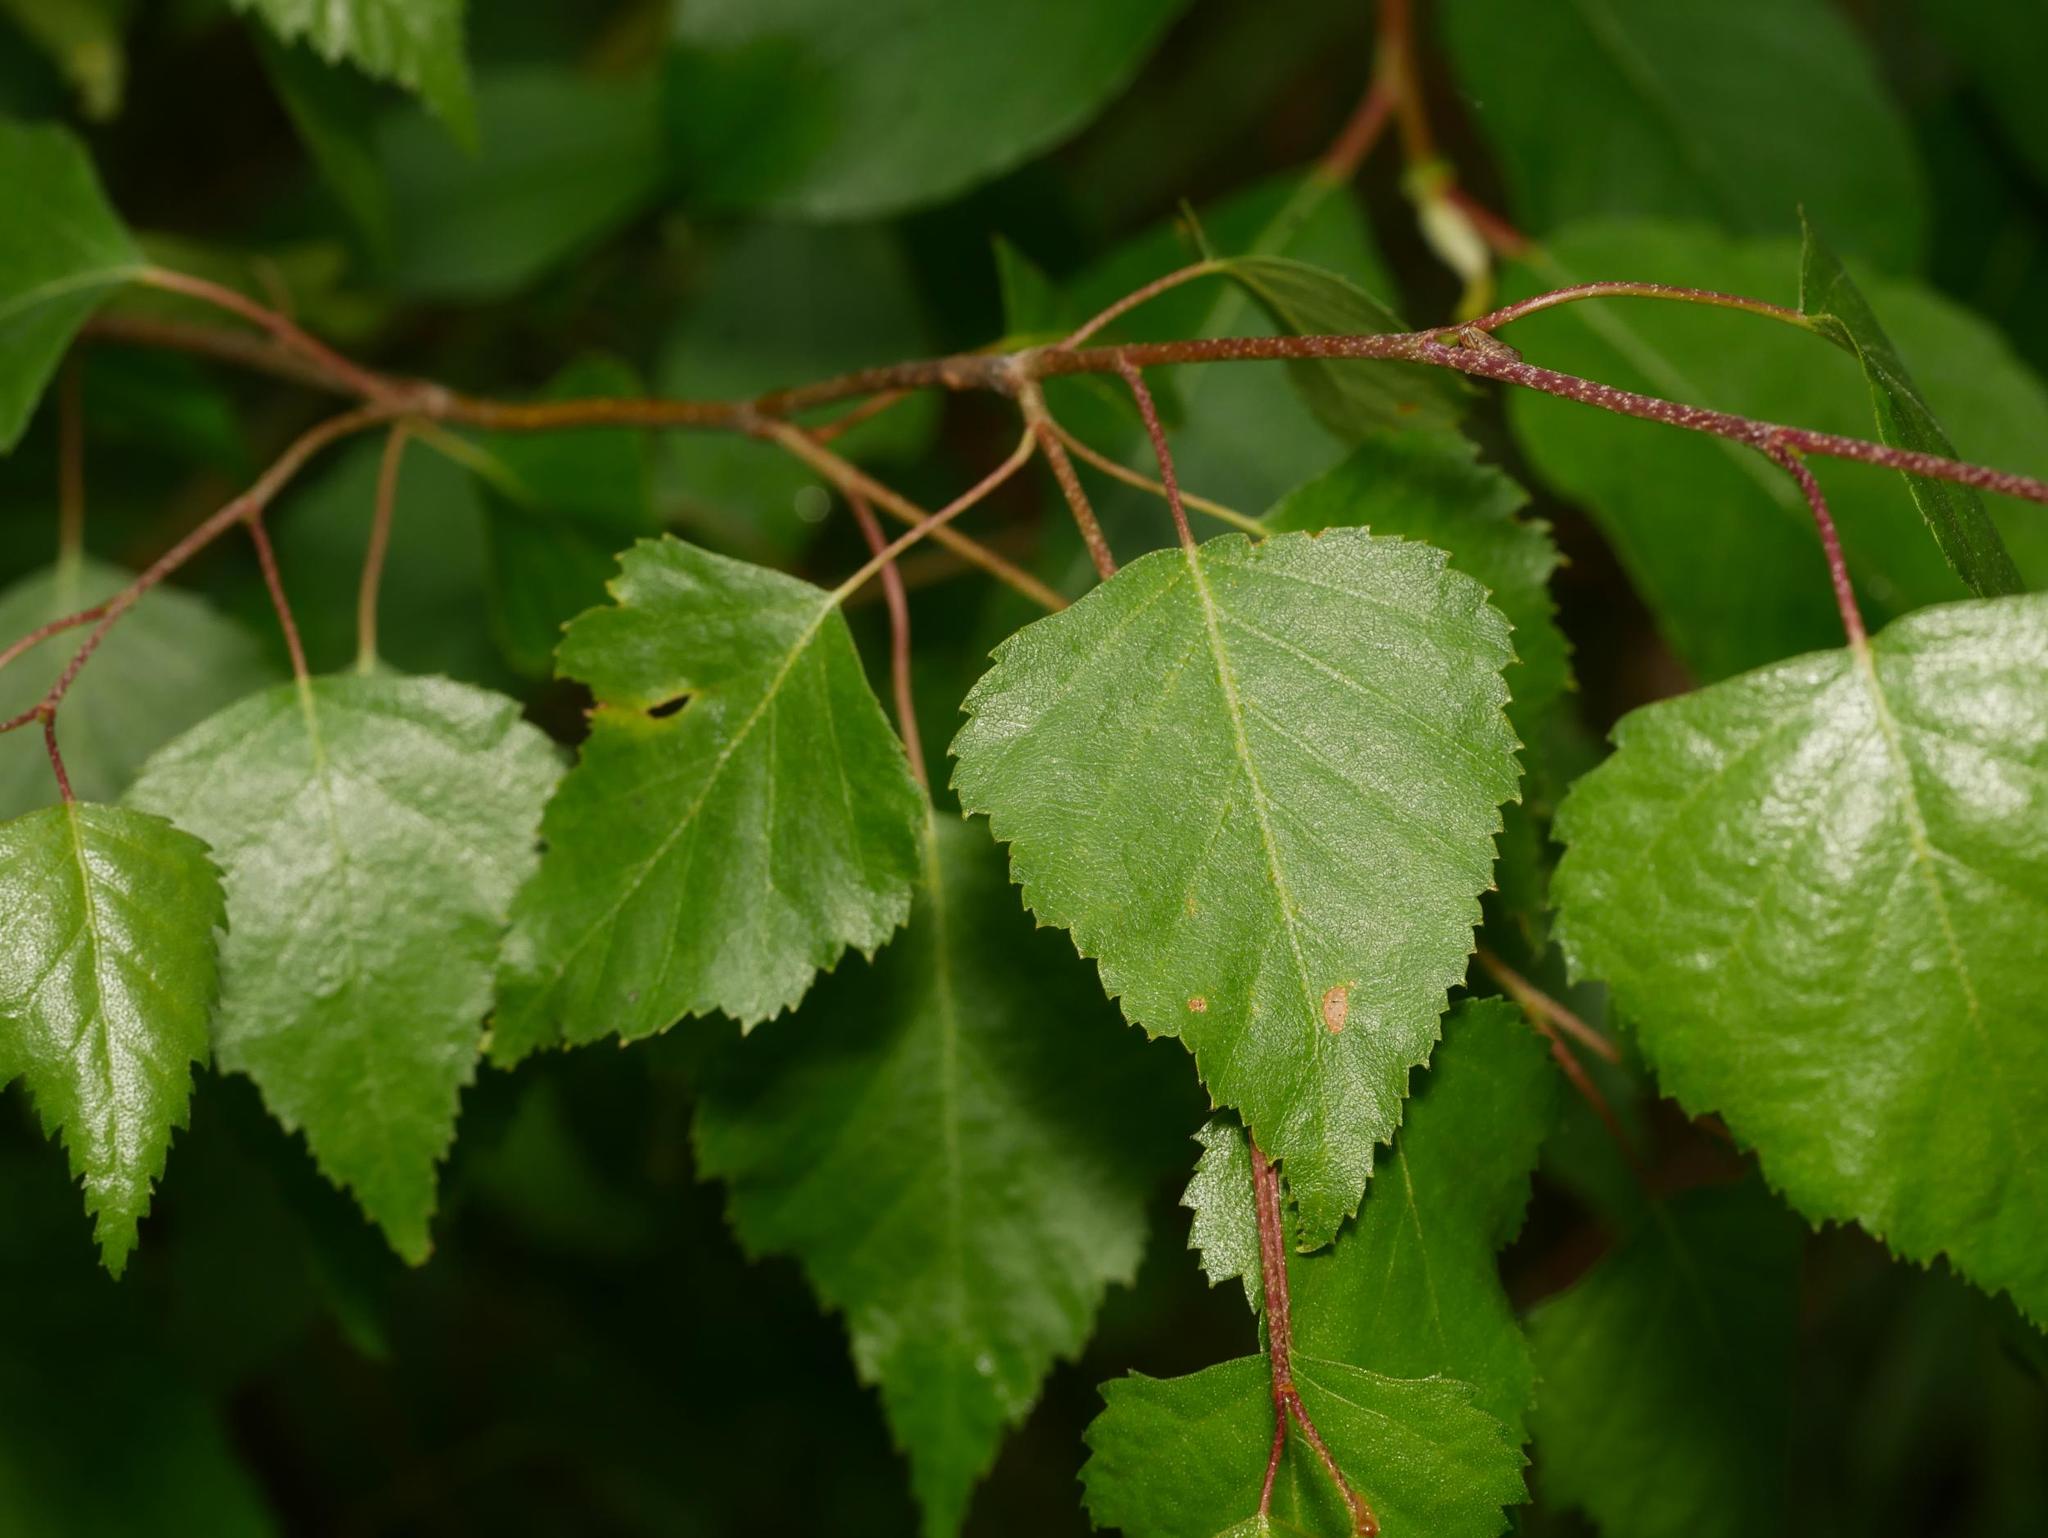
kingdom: Plantae
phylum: Tracheophyta
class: Magnoliopsida
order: Fagales
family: Betulaceae
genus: Betula
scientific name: Betula pendula
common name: Silver birch
